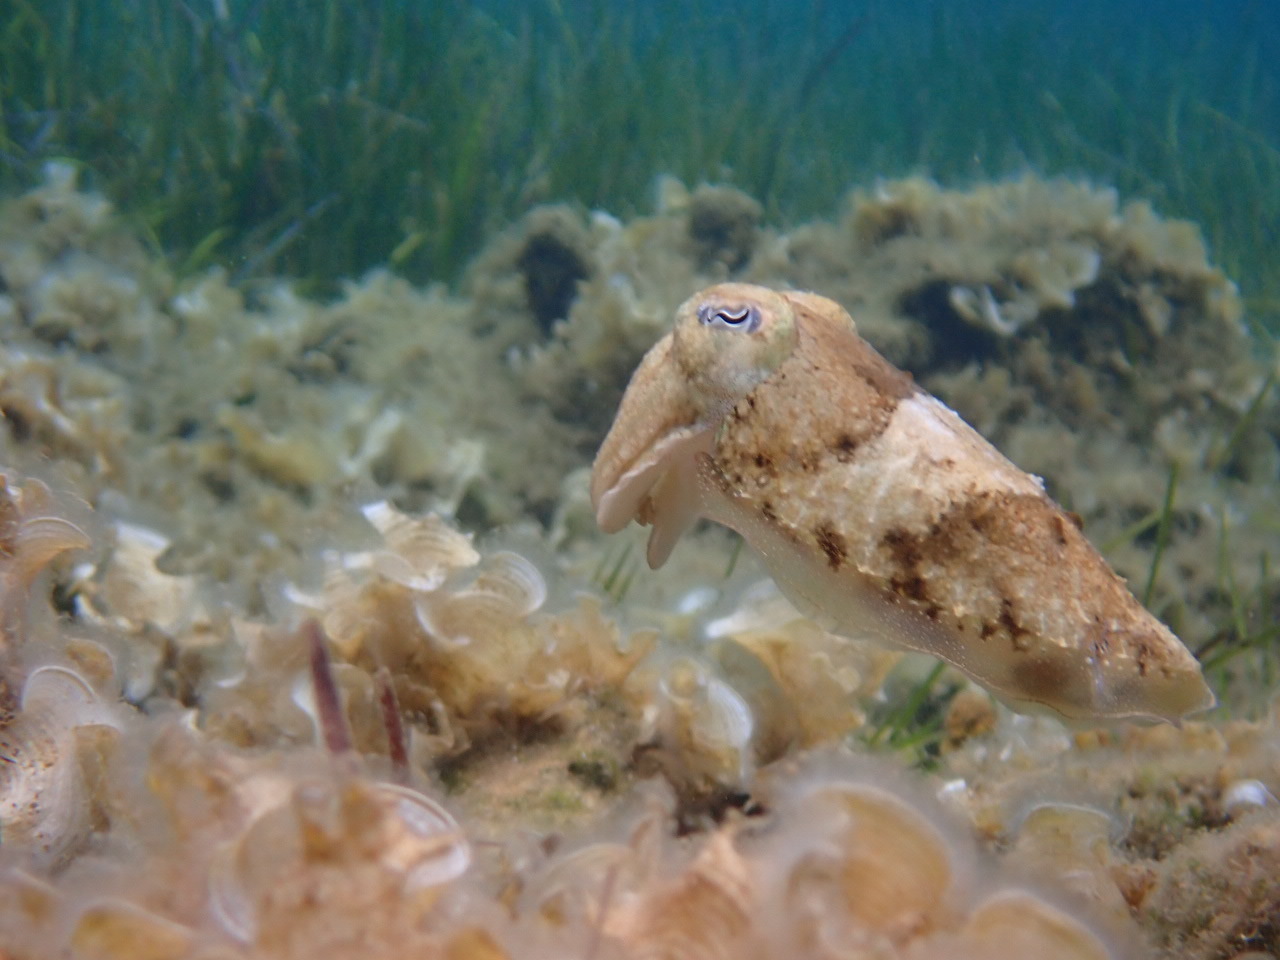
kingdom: Animalia
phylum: Mollusca
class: Cephalopoda
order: Sepiida
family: Sepiidae
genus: Sepia
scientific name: Sepia officinalis
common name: Common cuttlefish
